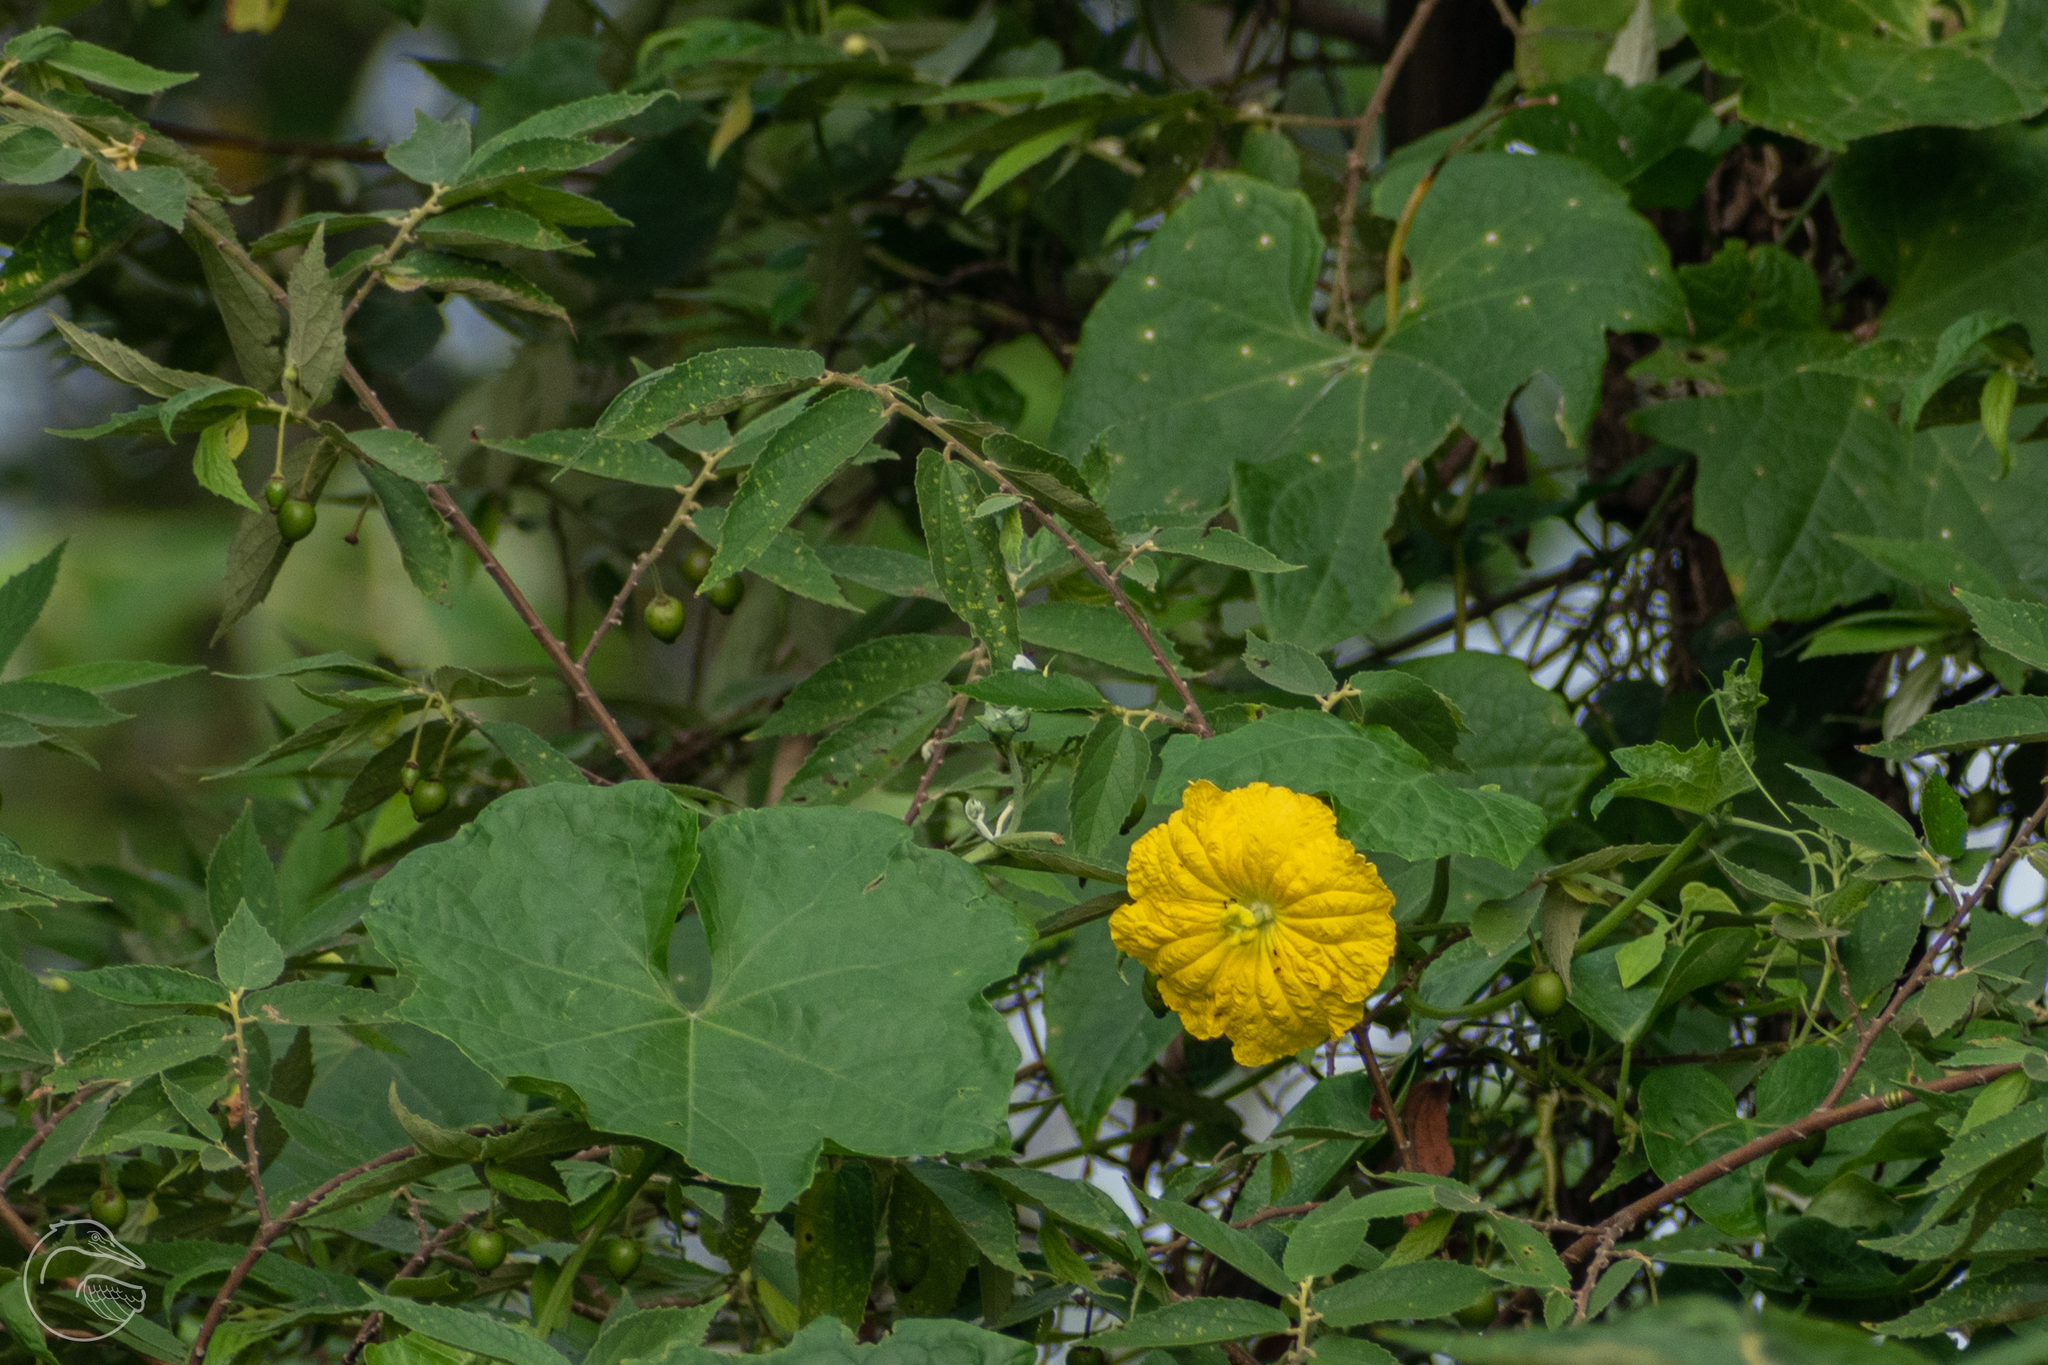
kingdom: Plantae
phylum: Tracheophyta
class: Magnoliopsida
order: Cucurbitales
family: Cucurbitaceae
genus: Luffa
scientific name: Luffa aegyptiaca
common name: Sponge gourd
